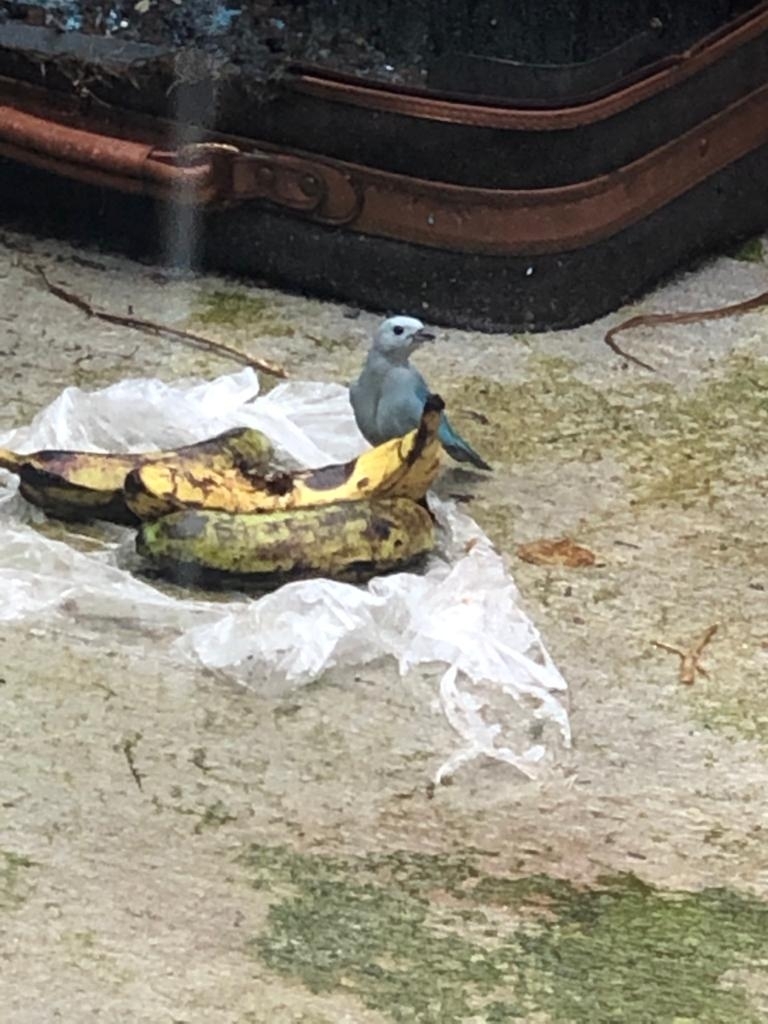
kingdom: Animalia
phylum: Chordata
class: Aves
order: Passeriformes
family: Thraupidae
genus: Thraupis
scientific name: Thraupis episcopus
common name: Blue-grey tanager
